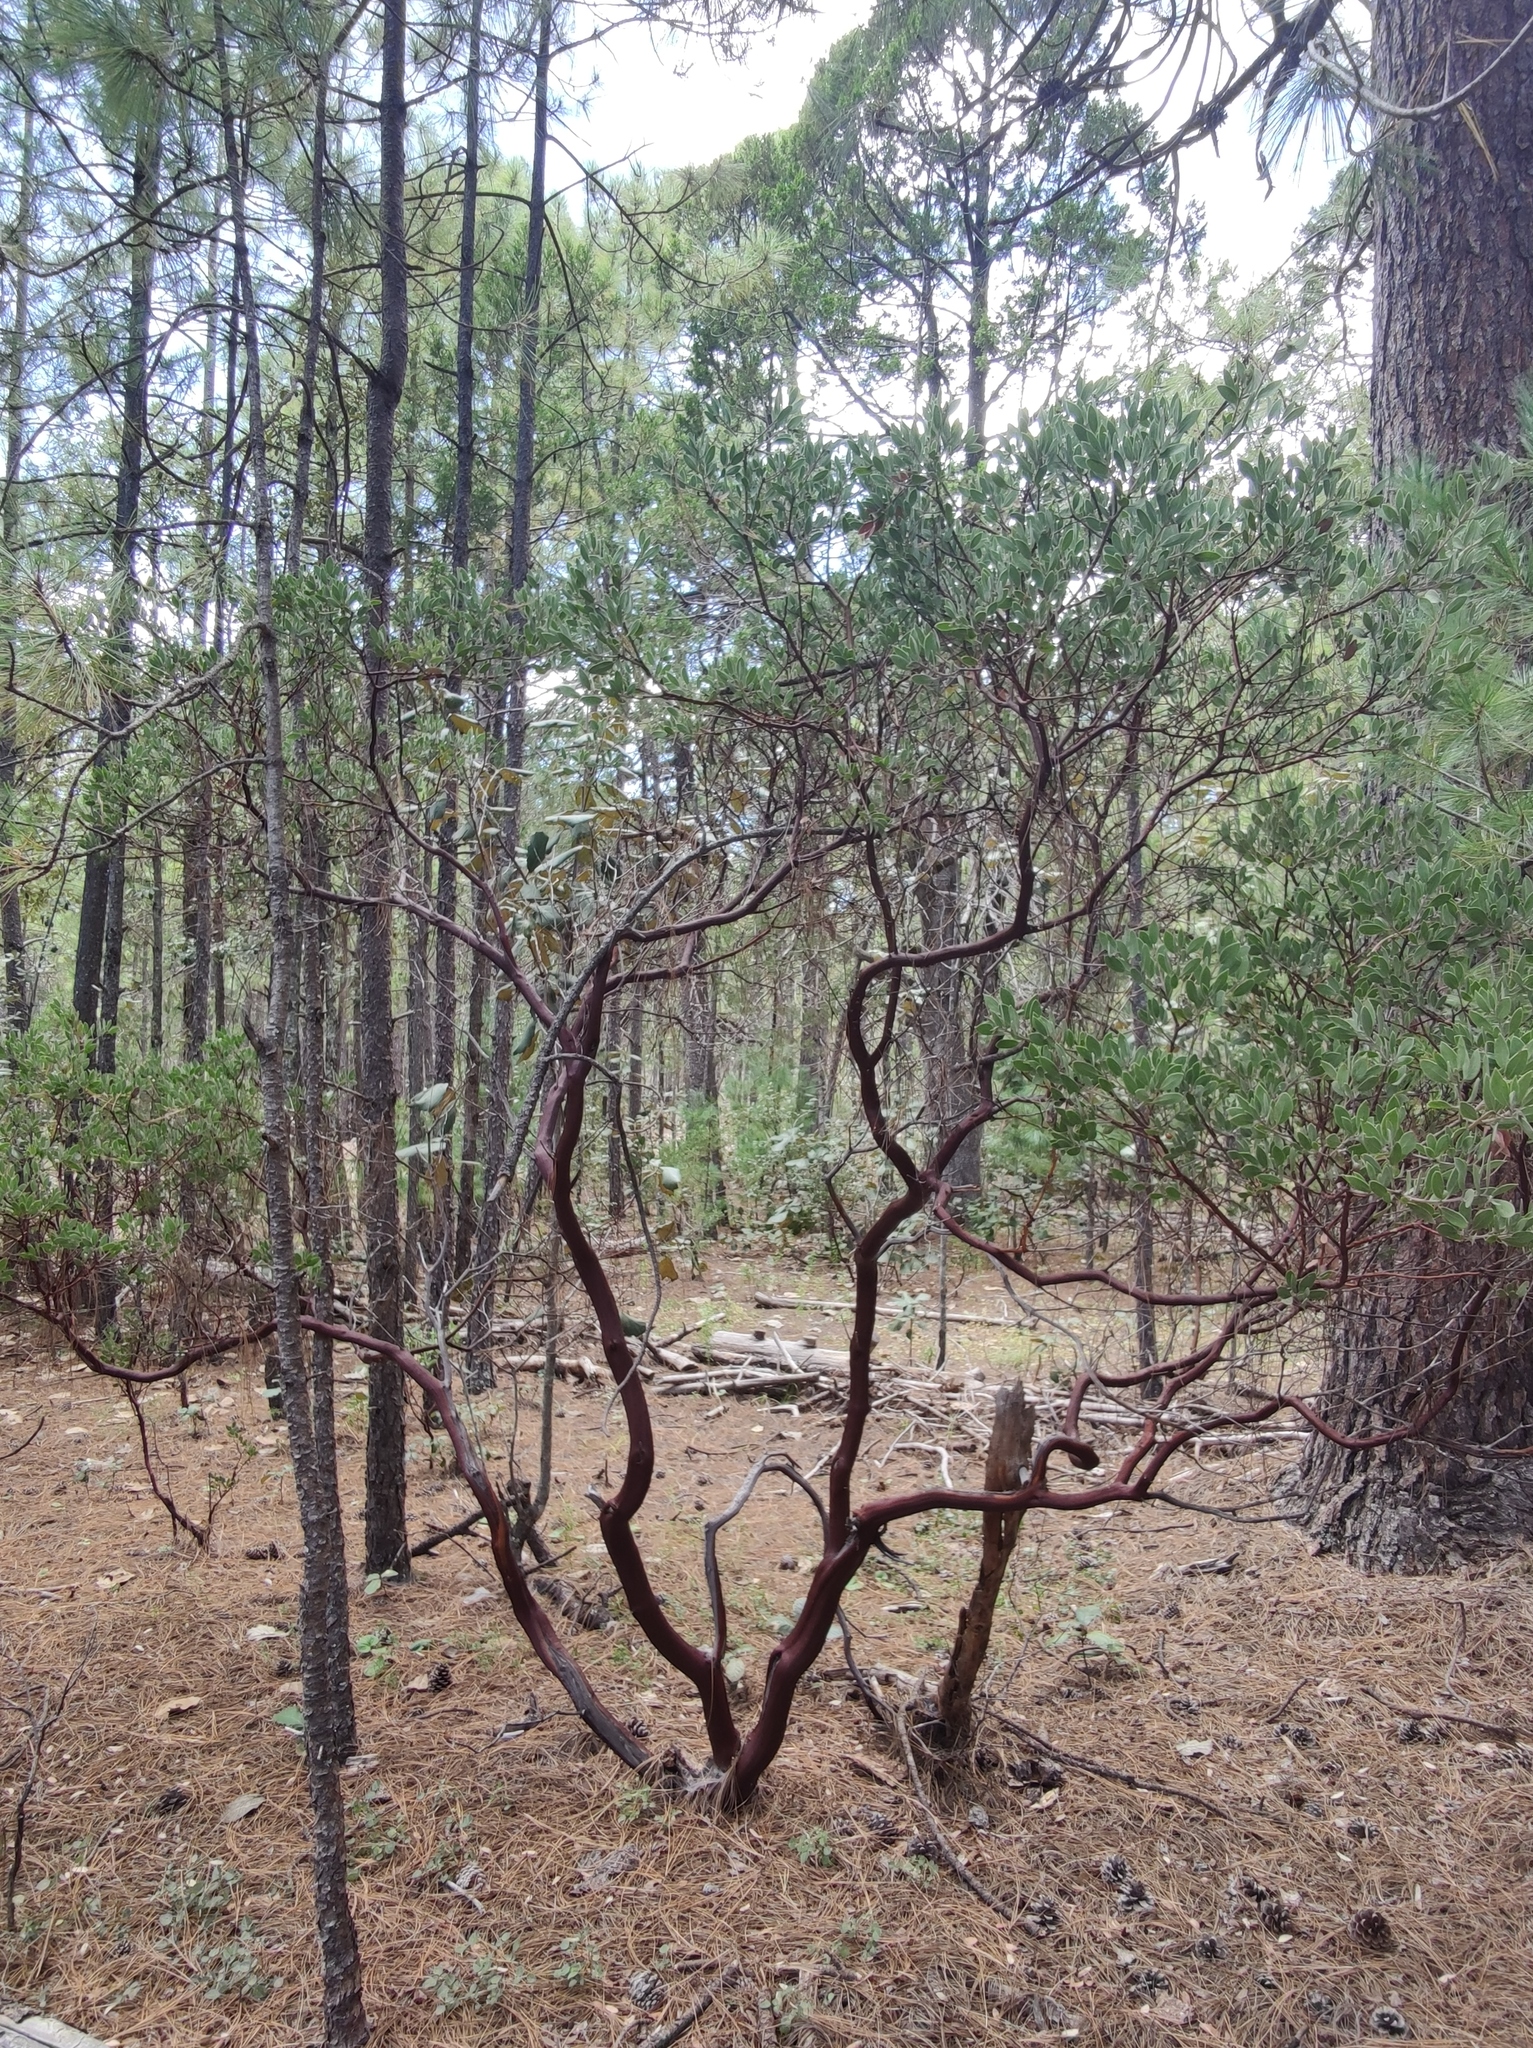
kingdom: Plantae
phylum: Tracheophyta
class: Magnoliopsida
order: Ericales
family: Ericaceae
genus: Arctostaphylos
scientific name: Arctostaphylos pungens
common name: Mexican manzanita
